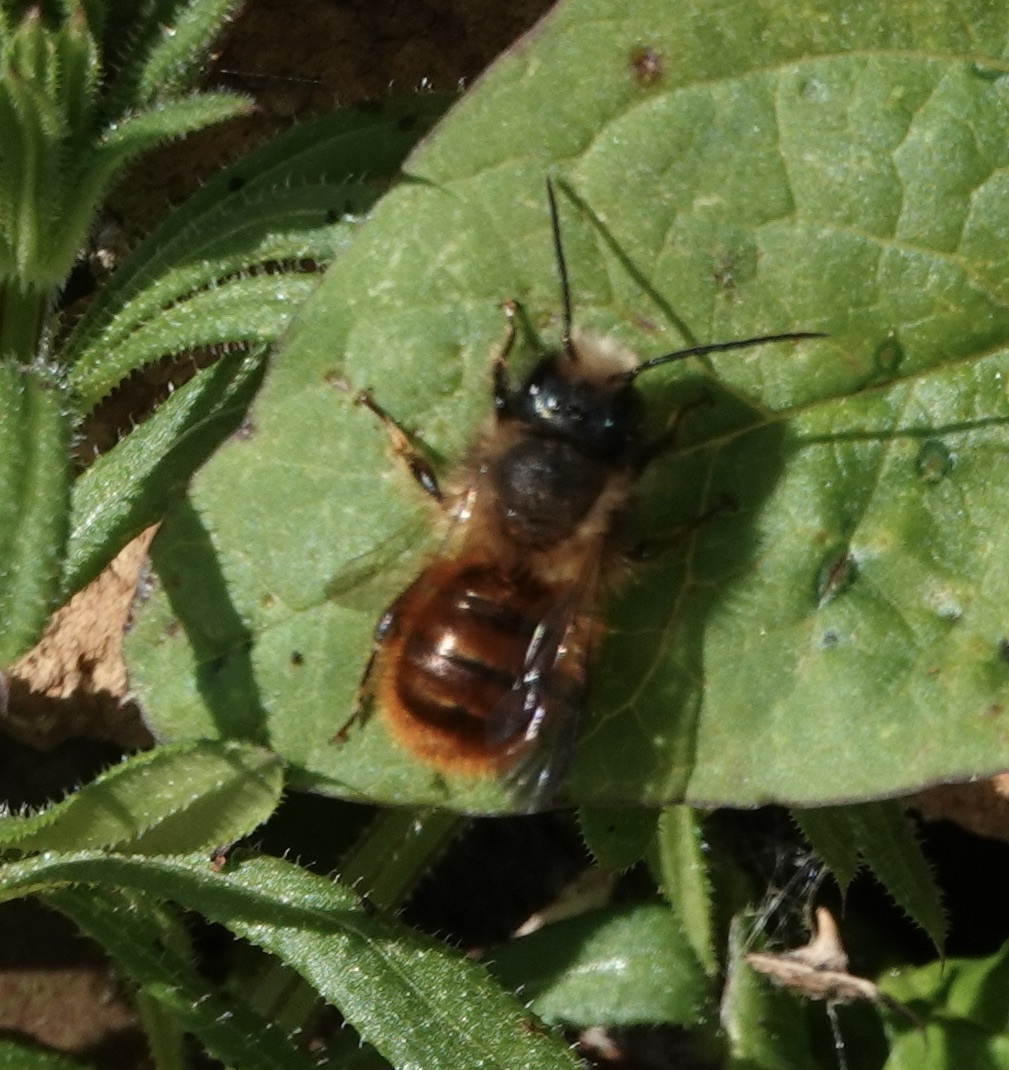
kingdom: Animalia
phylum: Arthropoda
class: Insecta
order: Hymenoptera
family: Megachilidae
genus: Osmia
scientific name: Osmia bicornis
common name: Red mason bee
